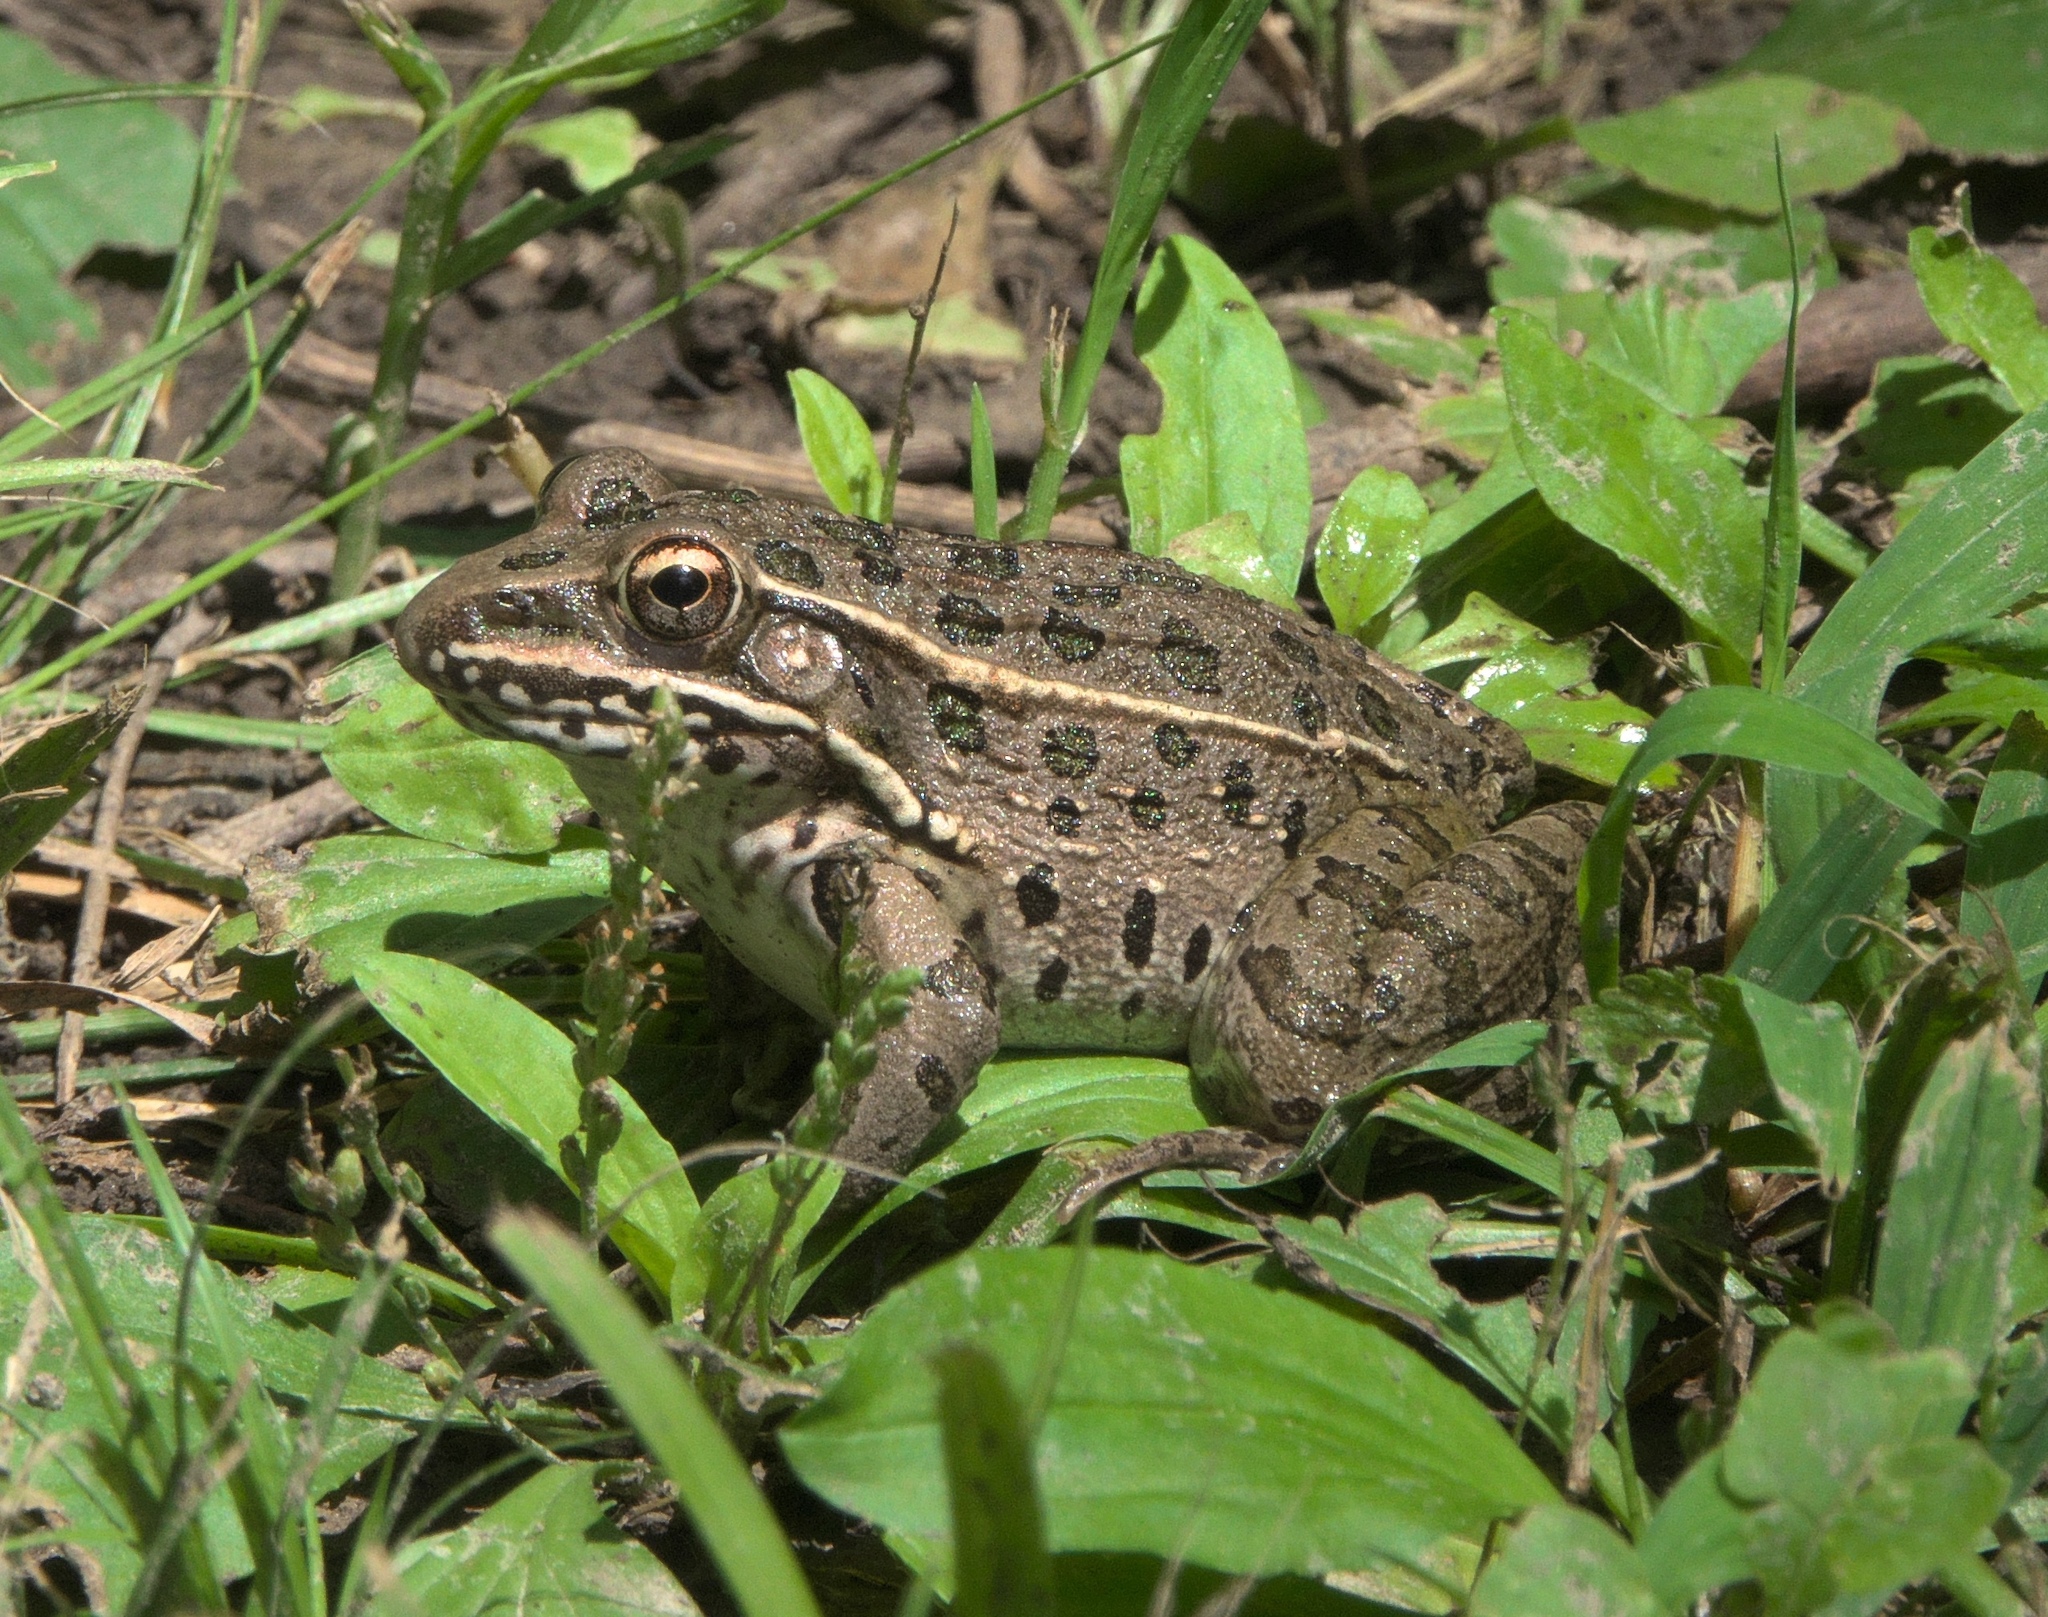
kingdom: Animalia
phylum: Chordata
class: Amphibia
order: Anura
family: Ranidae
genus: Lithobates
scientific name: Lithobates blairi
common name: Plains leopard frog
